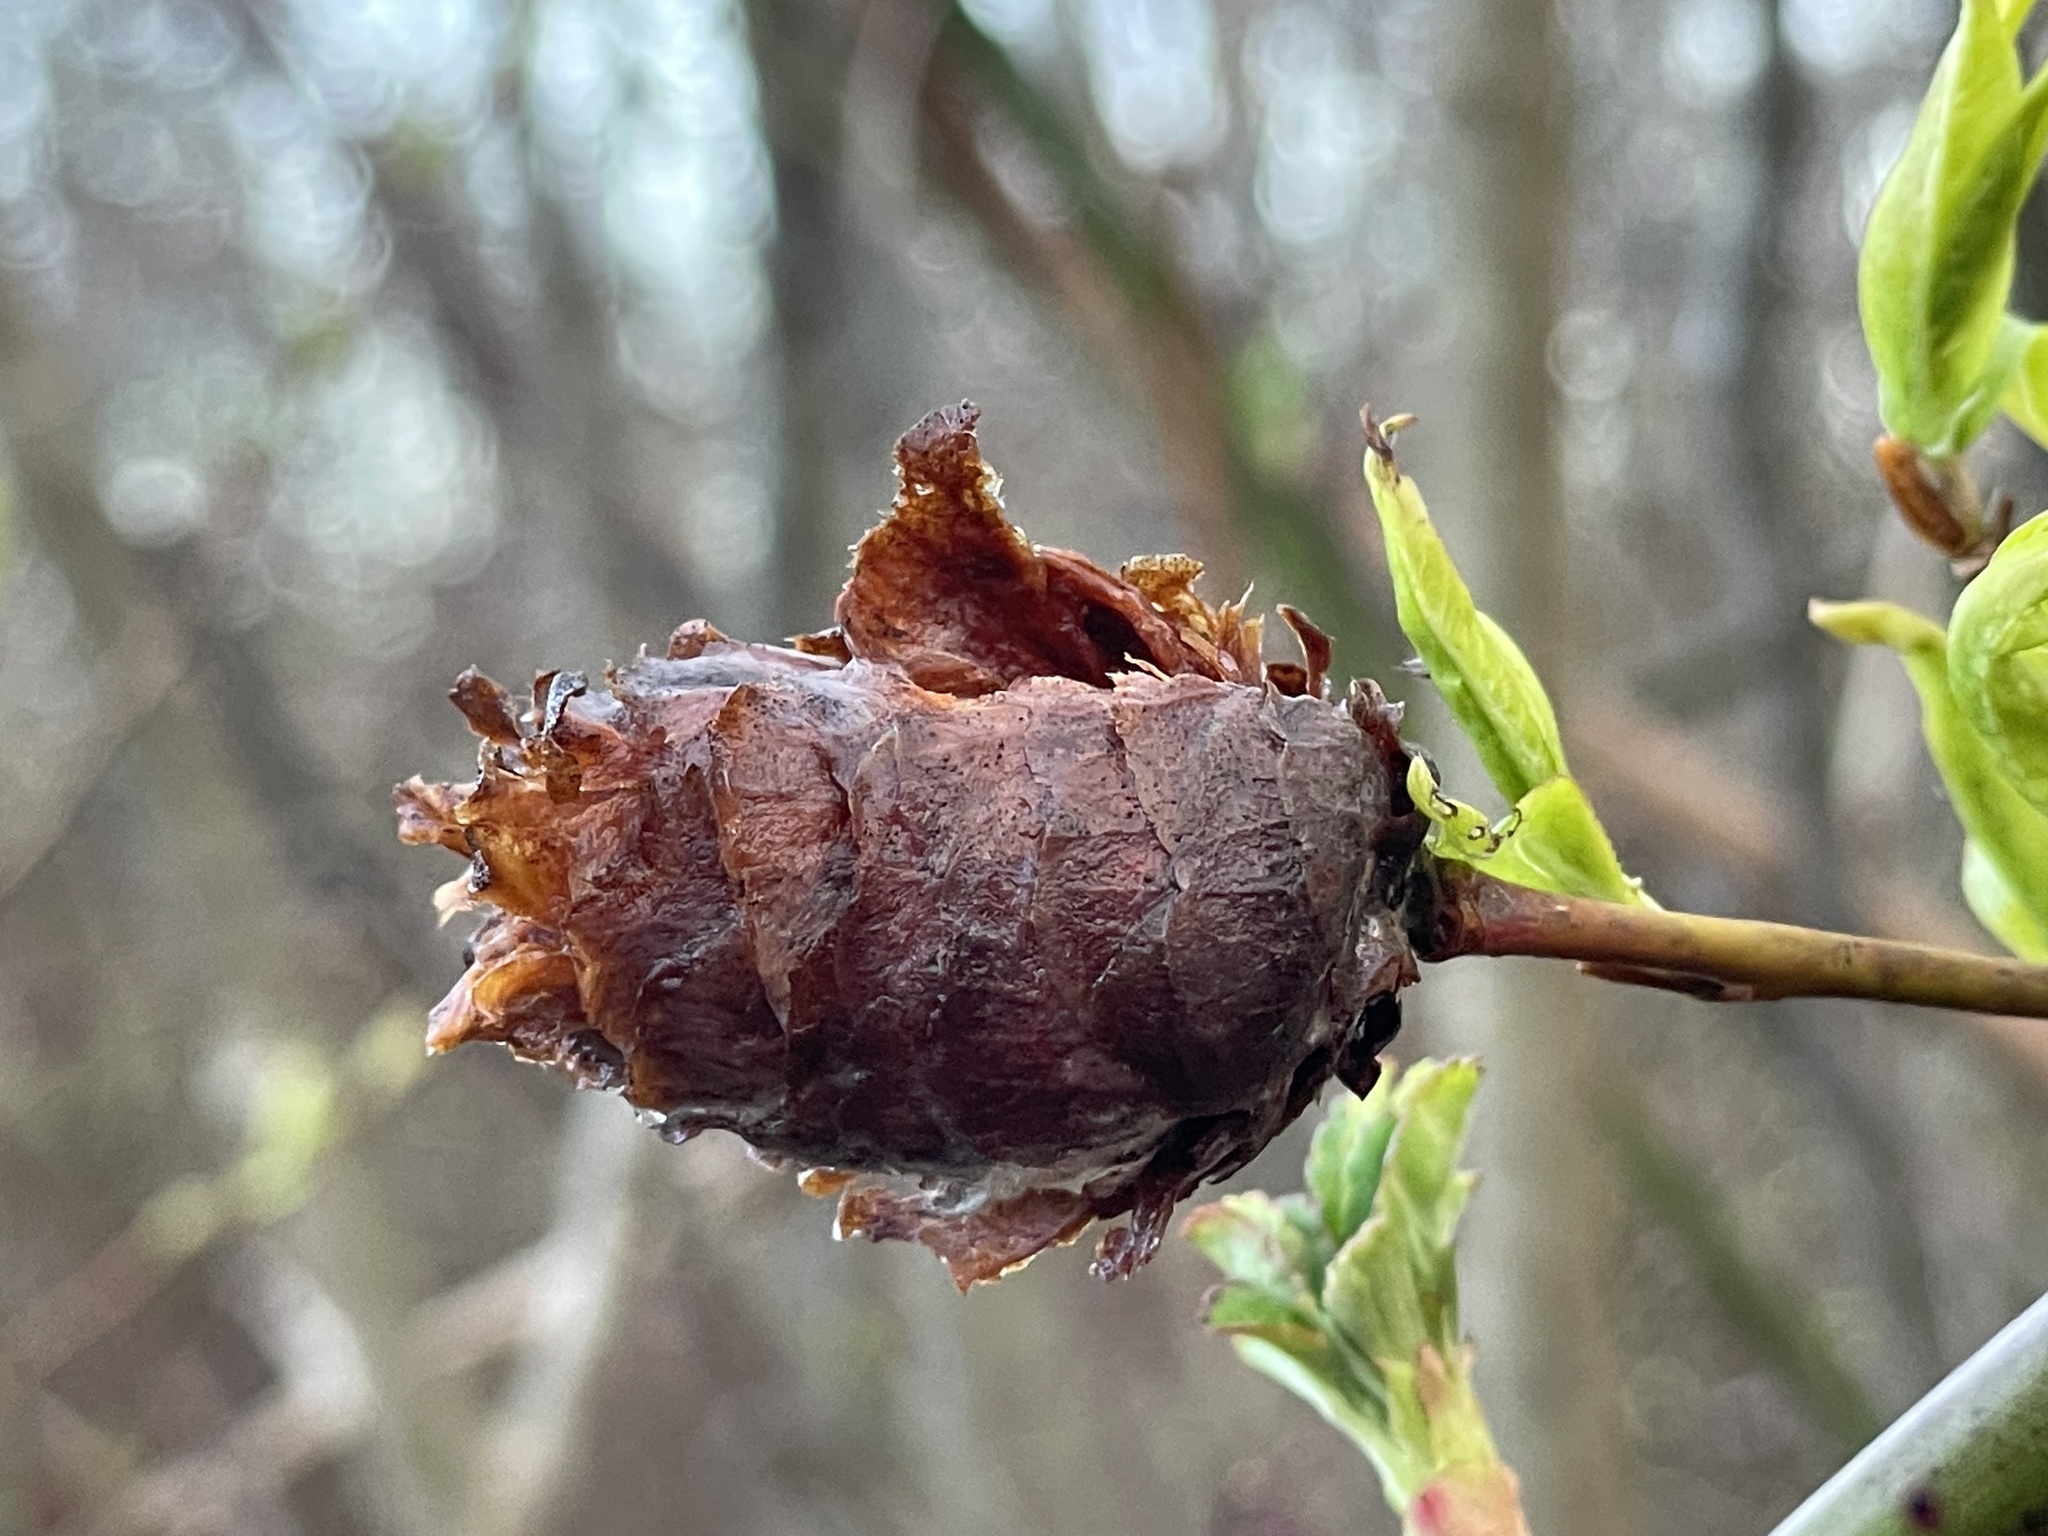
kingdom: Animalia
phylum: Arthropoda
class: Insecta
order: Diptera
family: Cecidomyiidae
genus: Rabdophaga
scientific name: Rabdophaga strobiloides
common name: Willow pinecone gall midge
